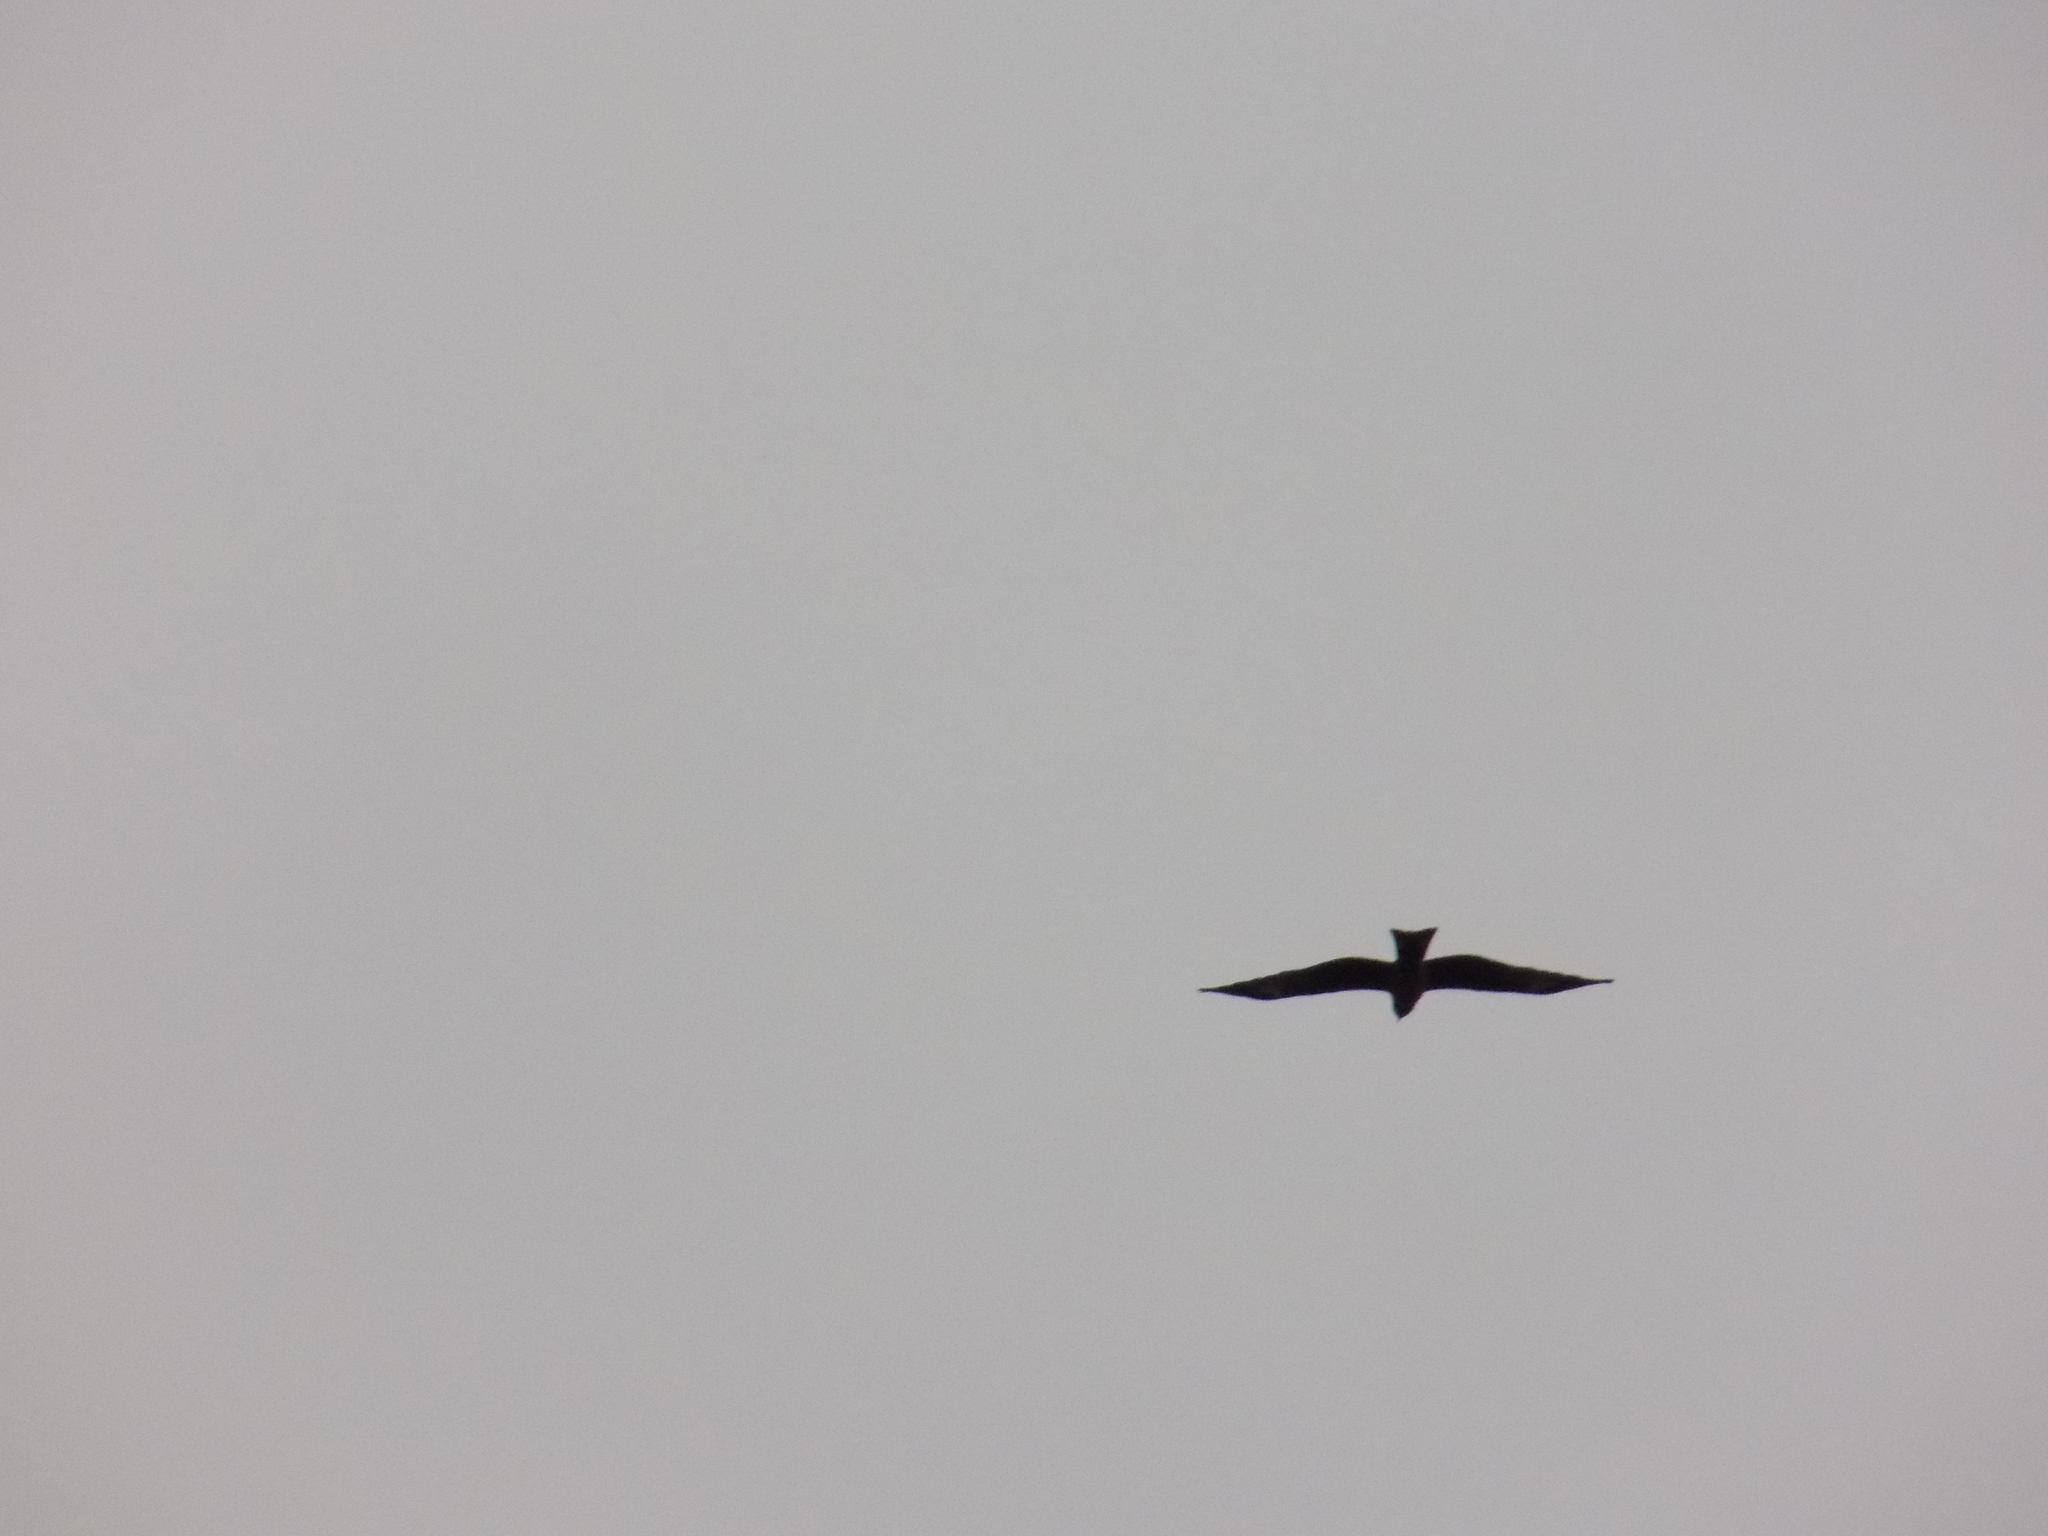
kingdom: Animalia
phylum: Chordata
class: Aves
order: Accipitriformes
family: Accipitridae
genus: Milvus
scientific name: Milvus migrans
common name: Black kite
